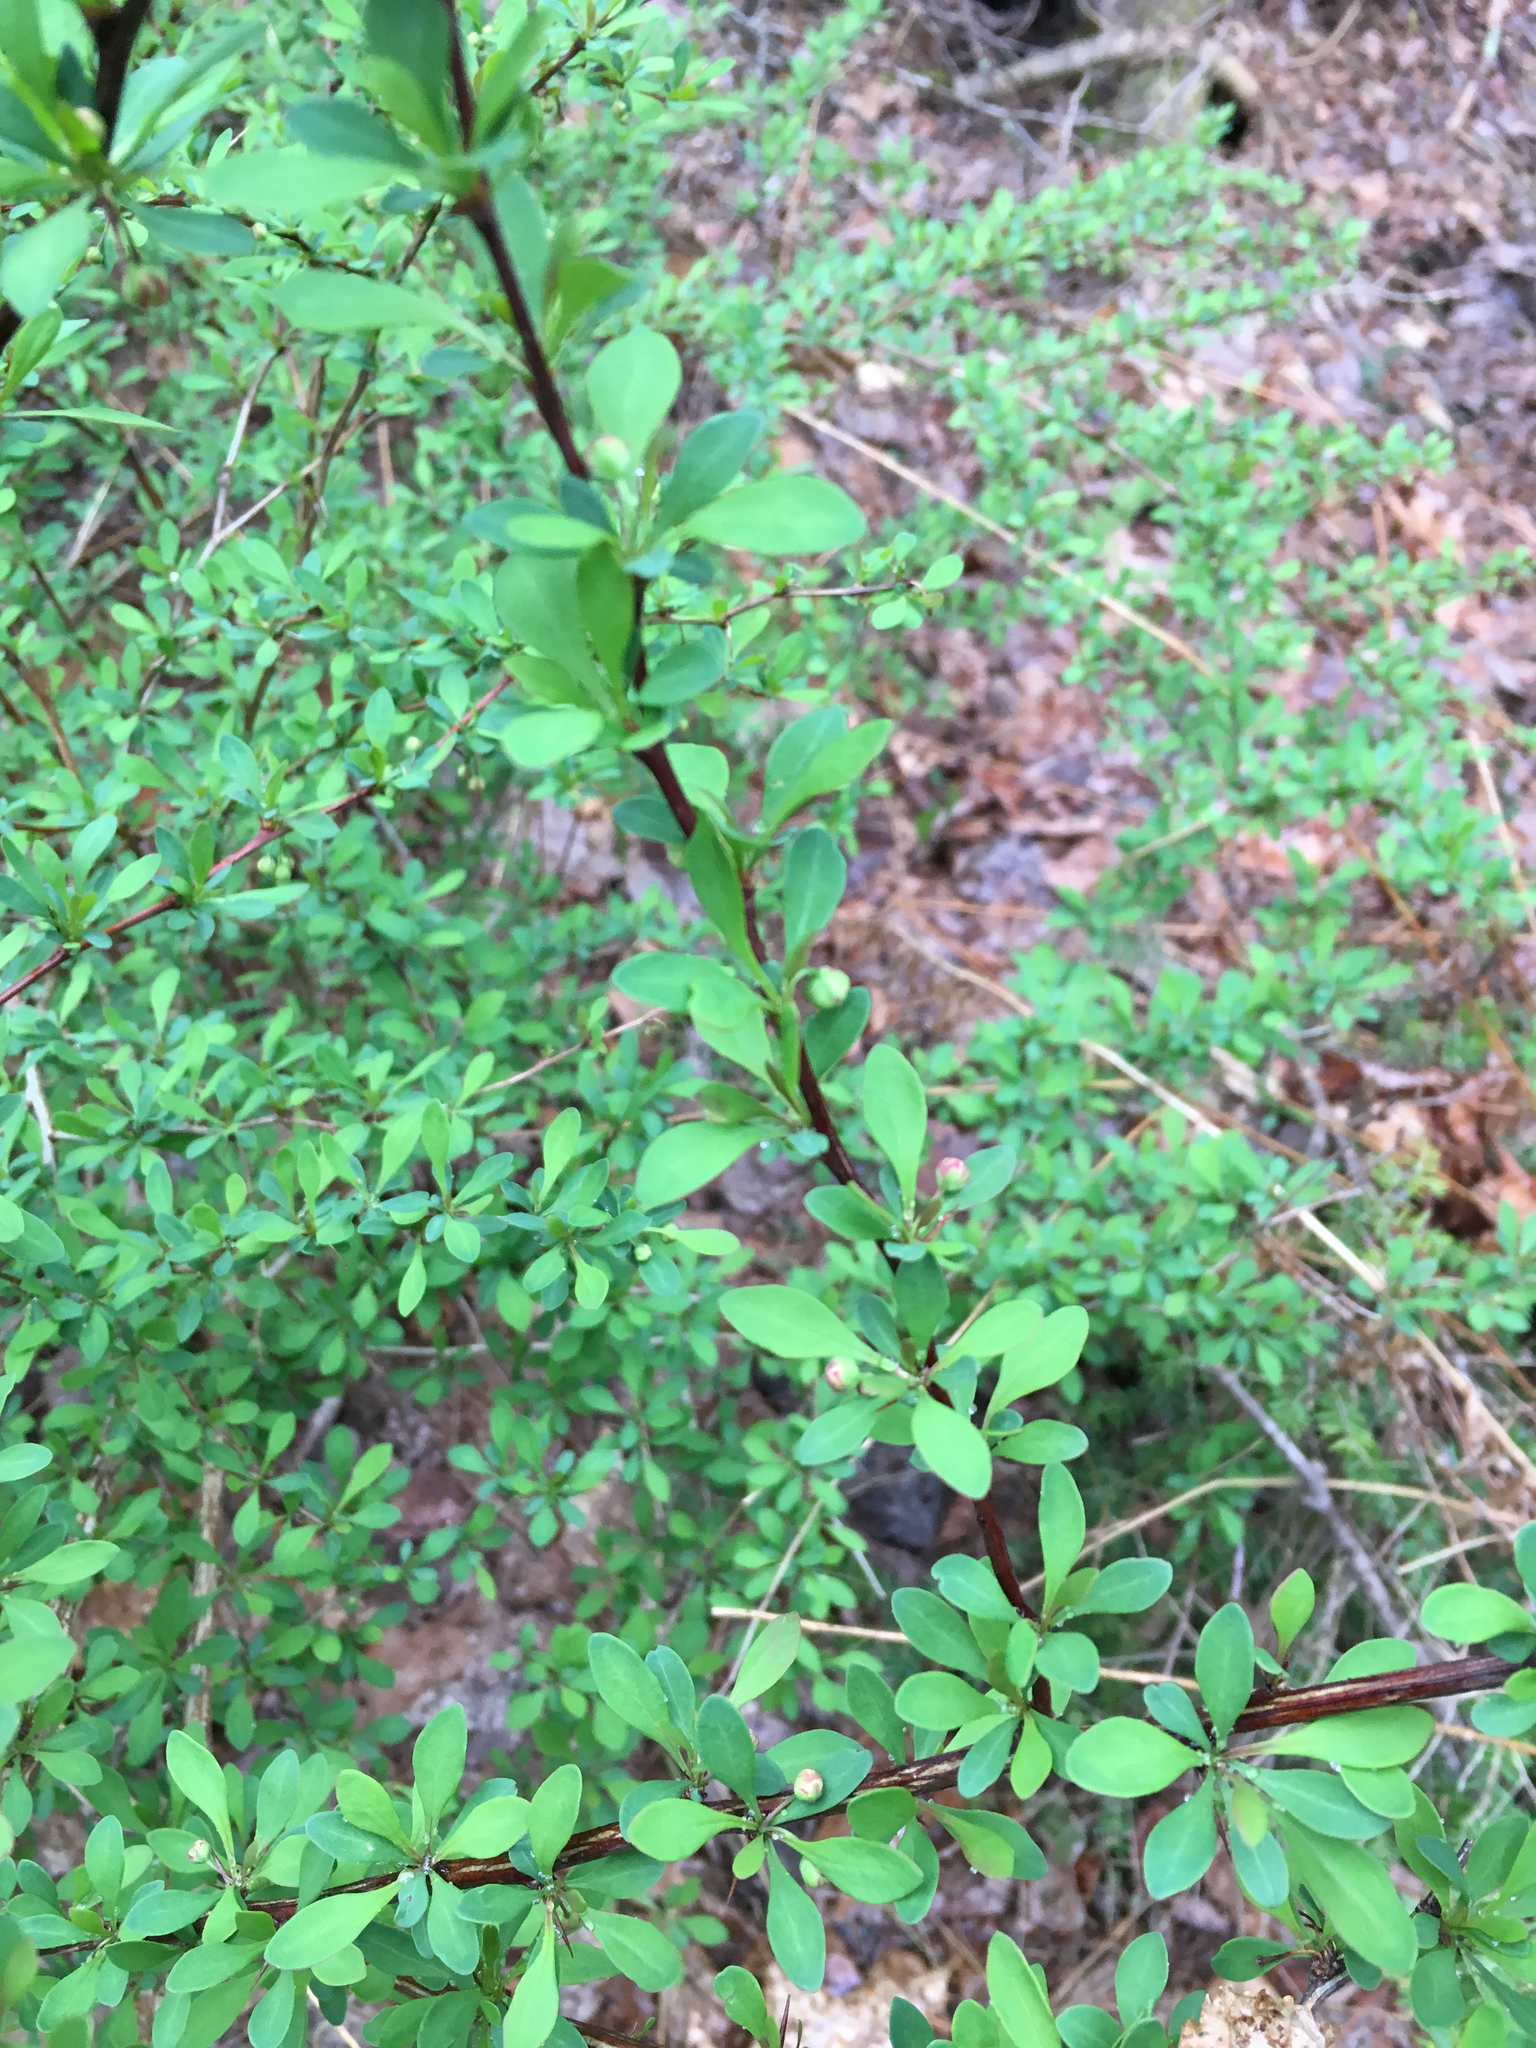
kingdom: Plantae
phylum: Tracheophyta
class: Magnoliopsida
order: Ranunculales
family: Berberidaceae
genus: Berberis
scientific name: Berberis thunbergii
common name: Japanese barberry
